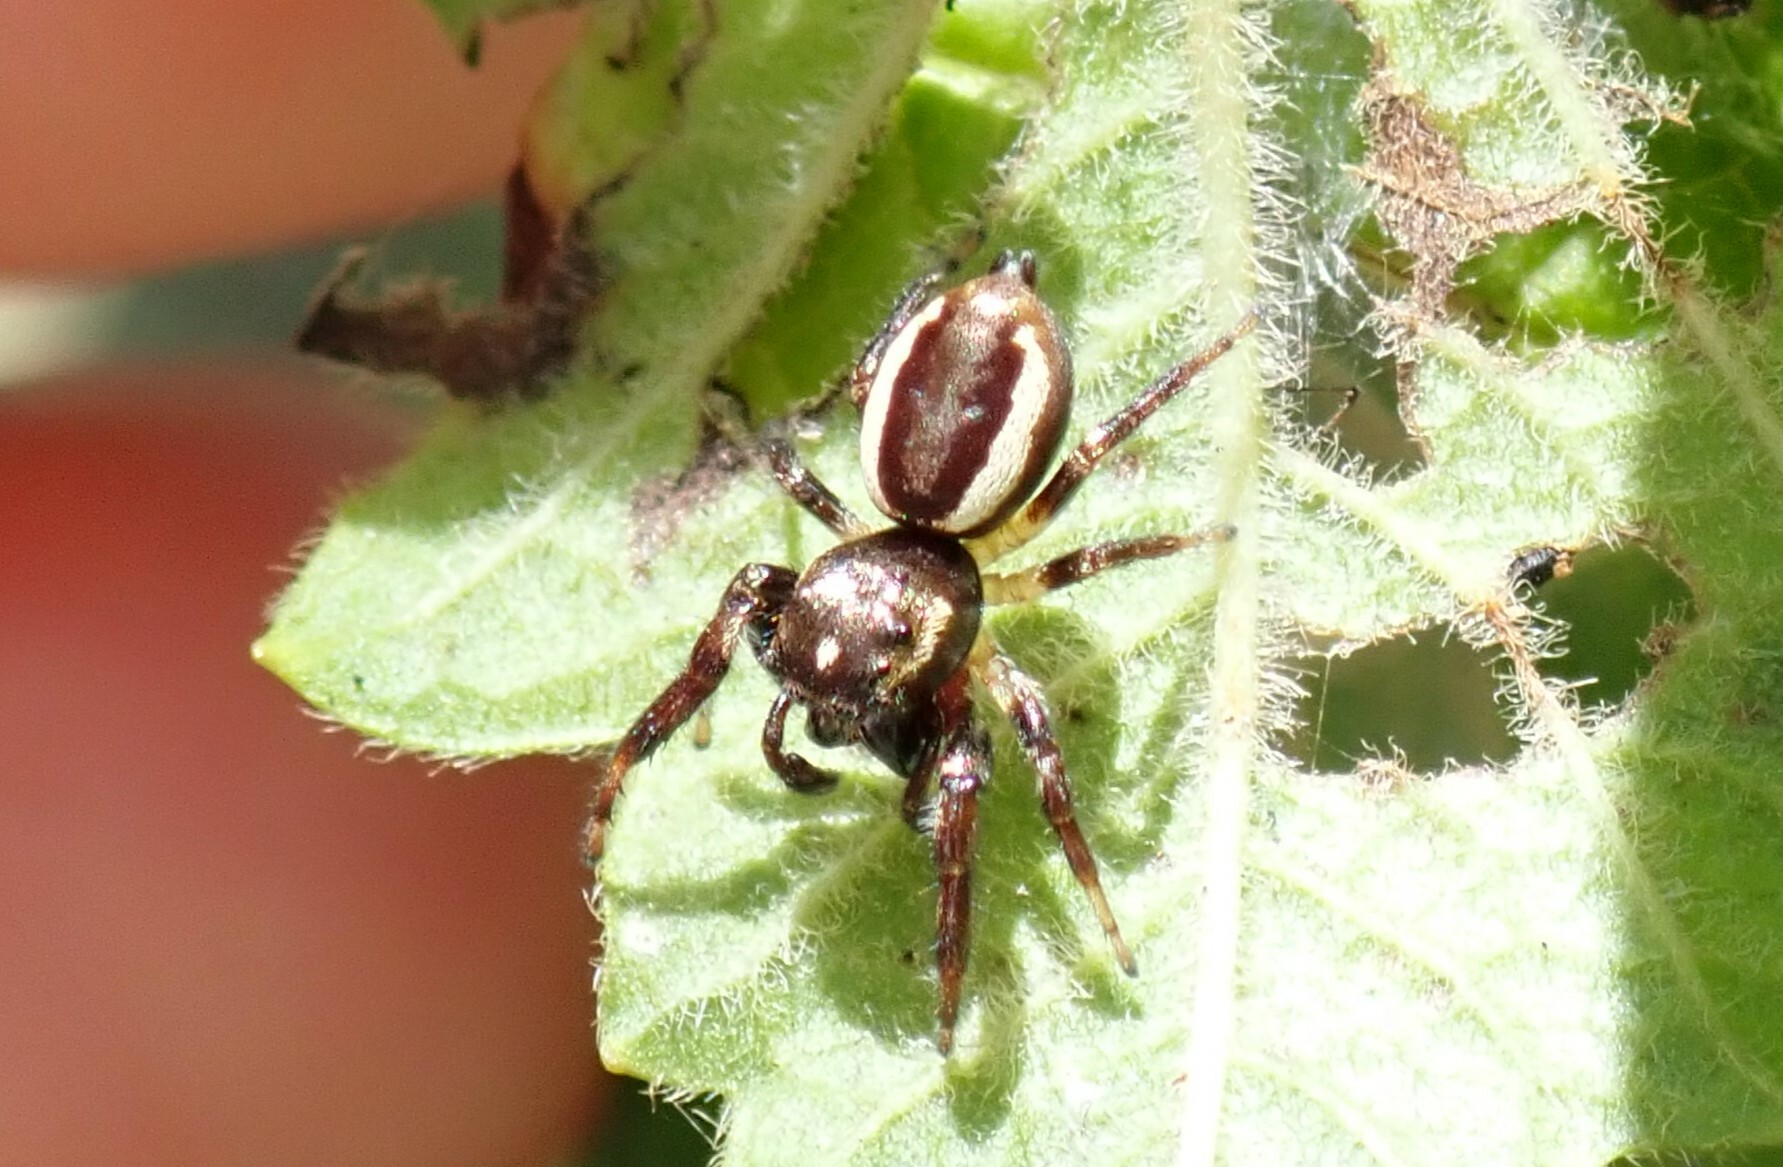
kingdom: Animalia
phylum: Arthropoda
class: Arachnida
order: Araneae
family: Salticidae
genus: Eris
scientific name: Eris militaris
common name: Bronze jumper
